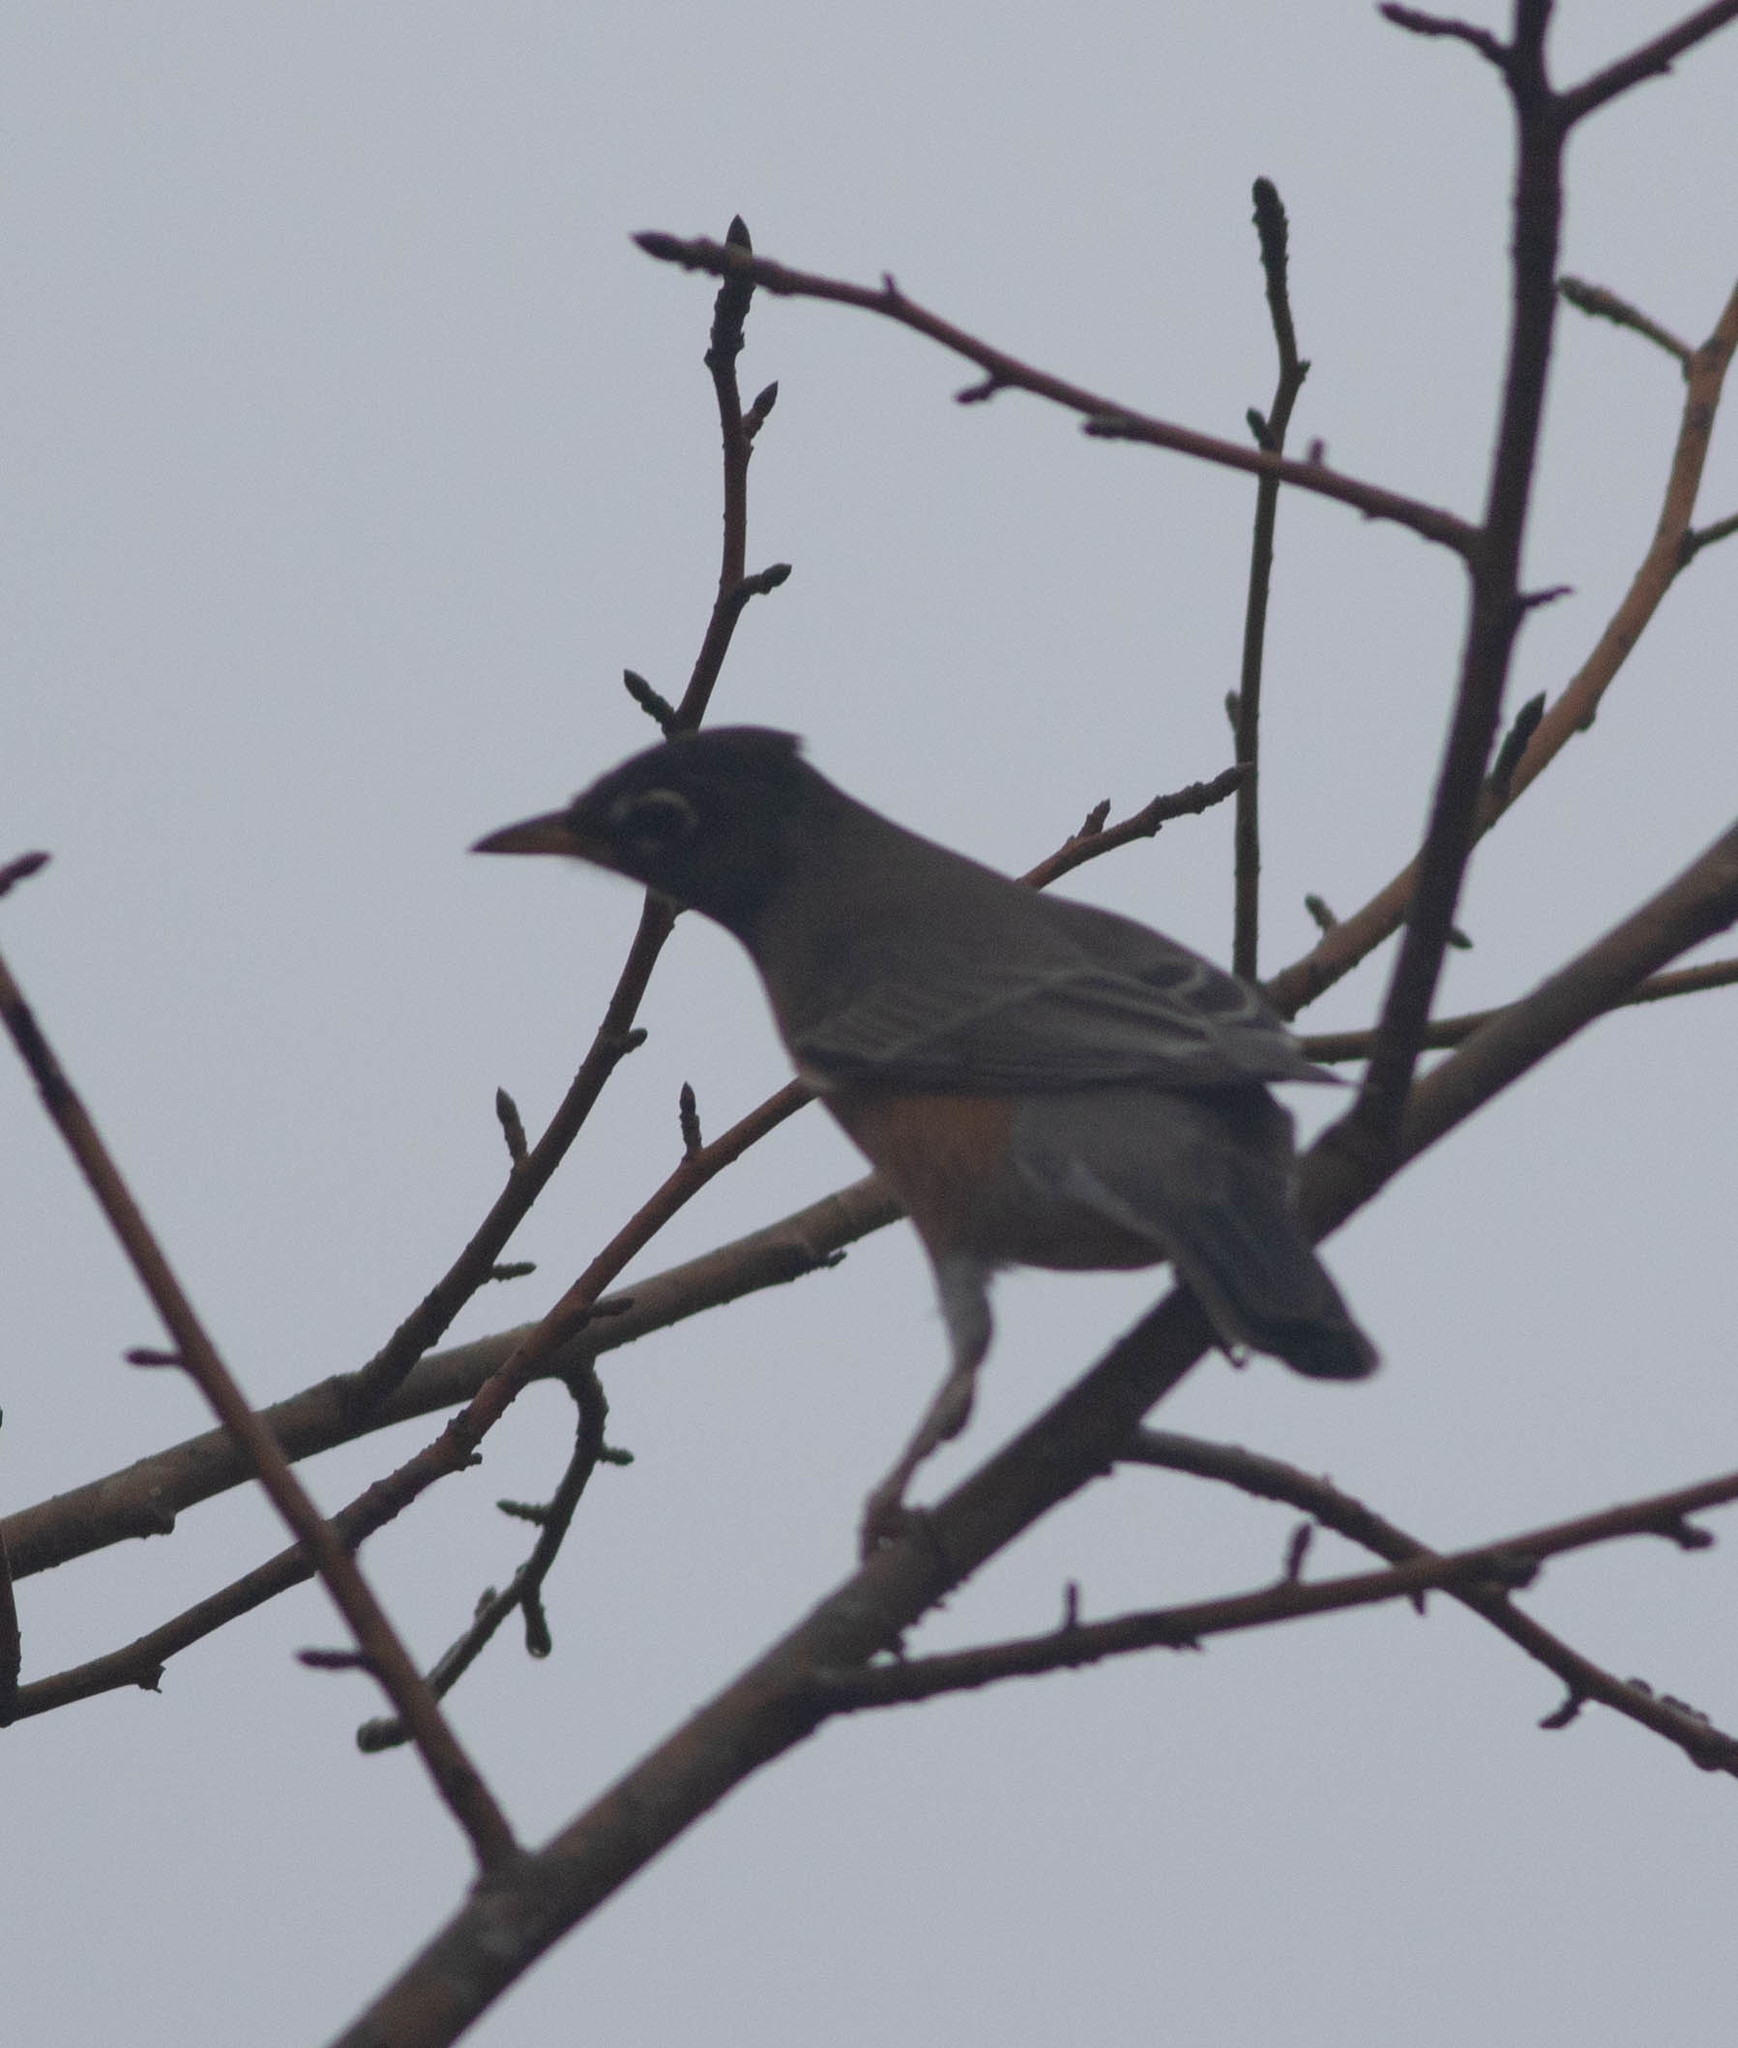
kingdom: Animalia
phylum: Chordata
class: Aves
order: Passeriformes
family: Turdidae
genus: Turdus
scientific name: Turdus migratorius
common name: American robin
